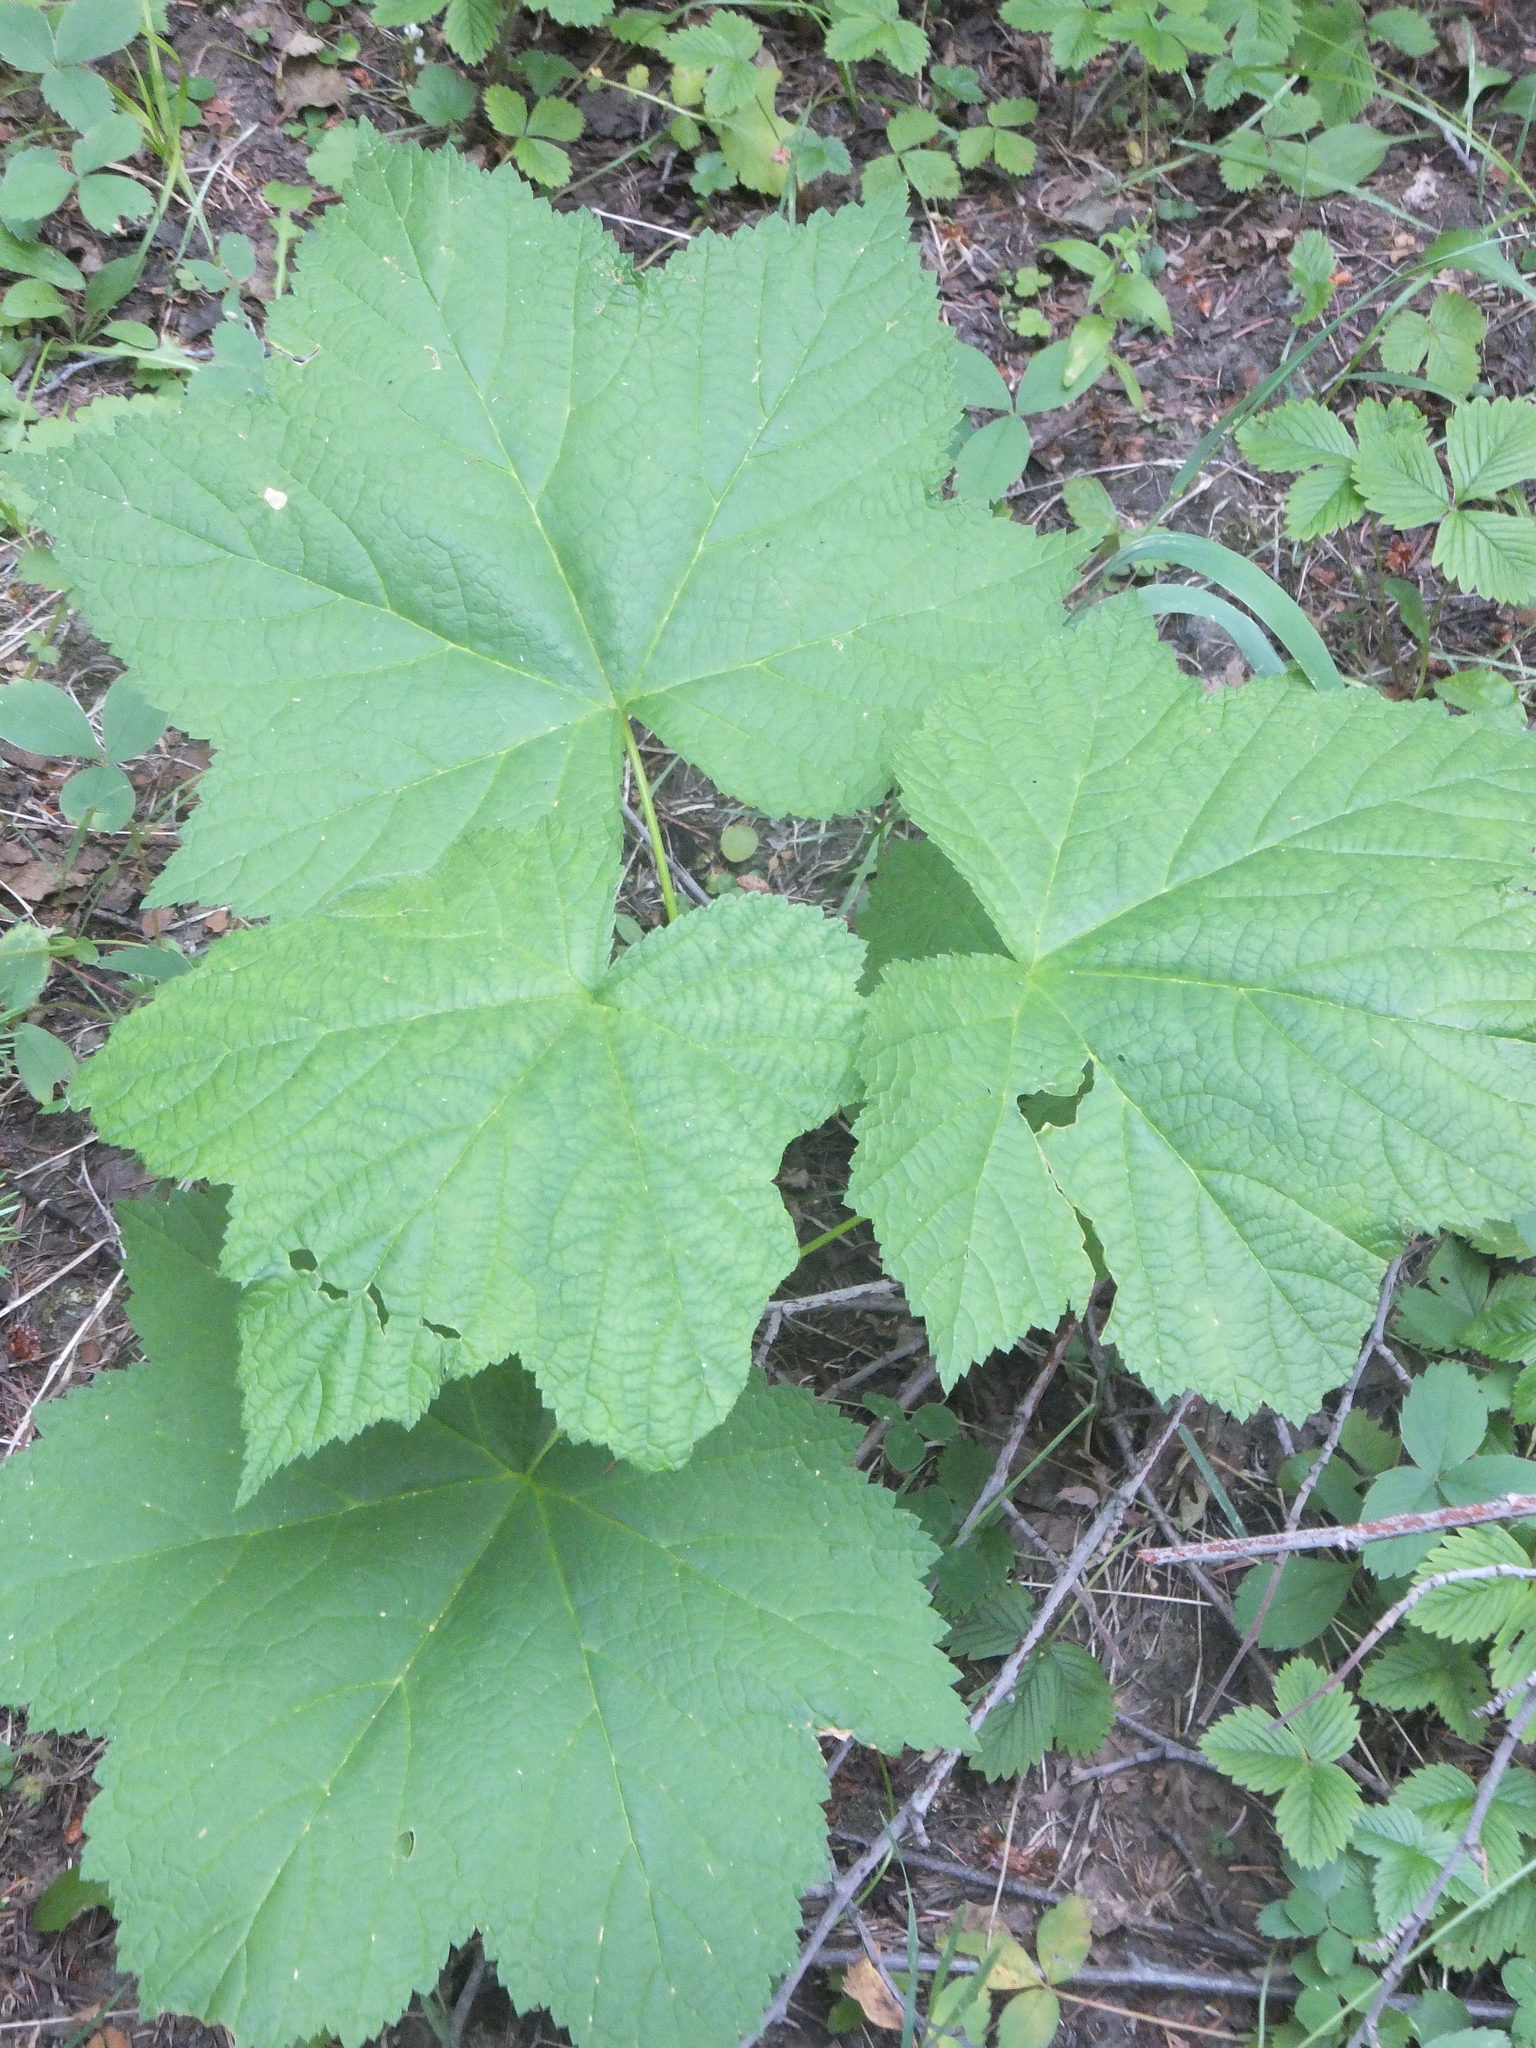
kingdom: Plantae
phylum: Tracheophyta
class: Magnoliopsida
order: Rosales
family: Rosaceae
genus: Rubus
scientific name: Rubus parviflorus
